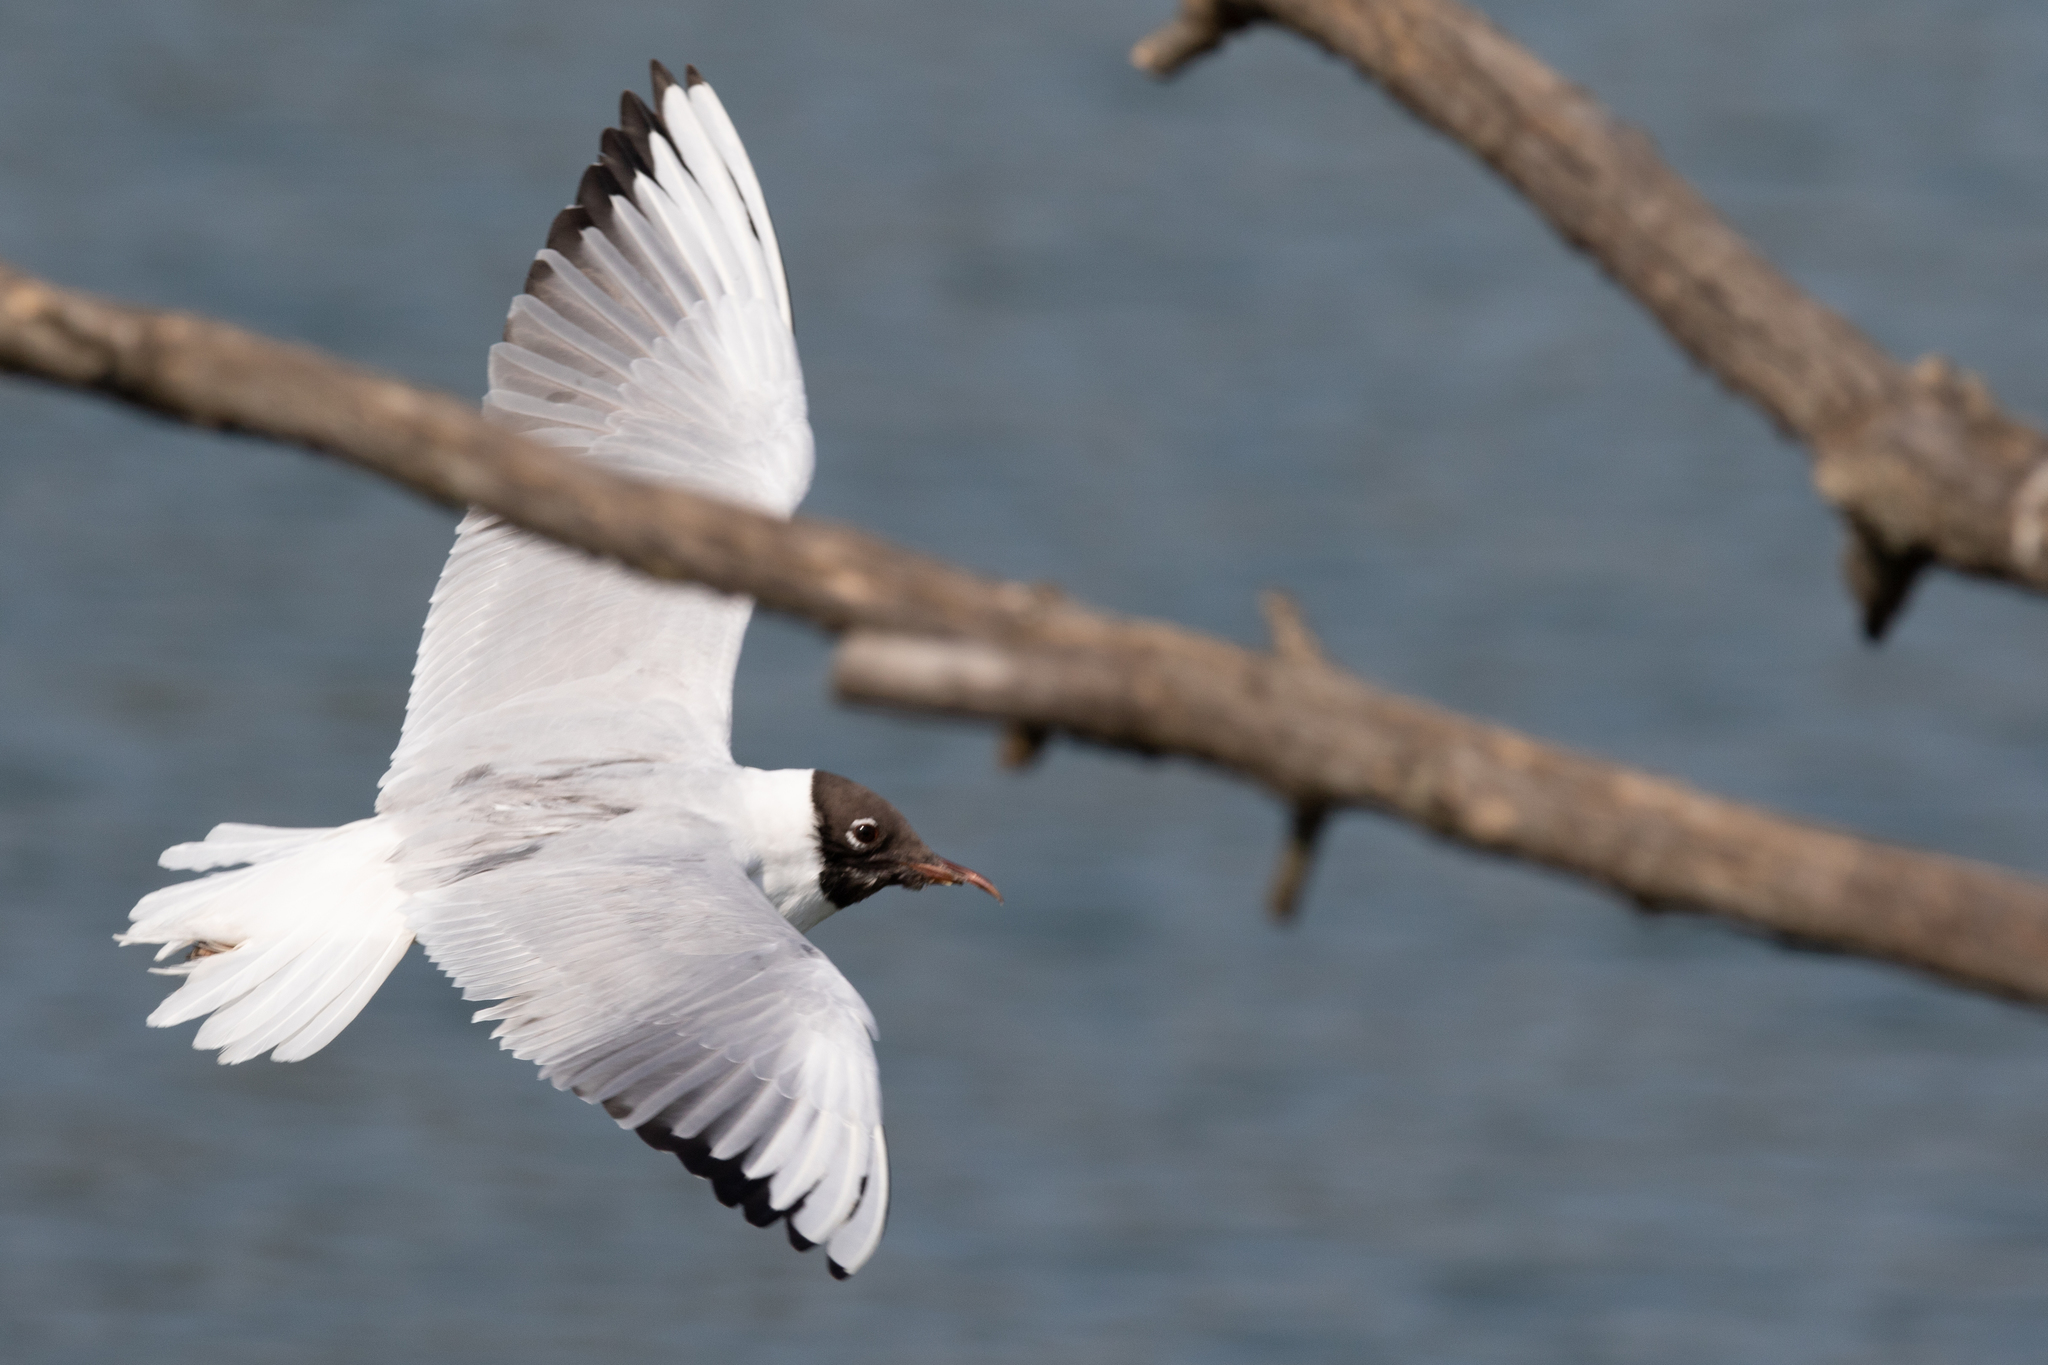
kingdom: Animalia
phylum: Chordata
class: Aves
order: Charadriiformes
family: Laridae
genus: Chroicocephalus
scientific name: Chroicocephalus ridibundus
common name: Black-headed gull
